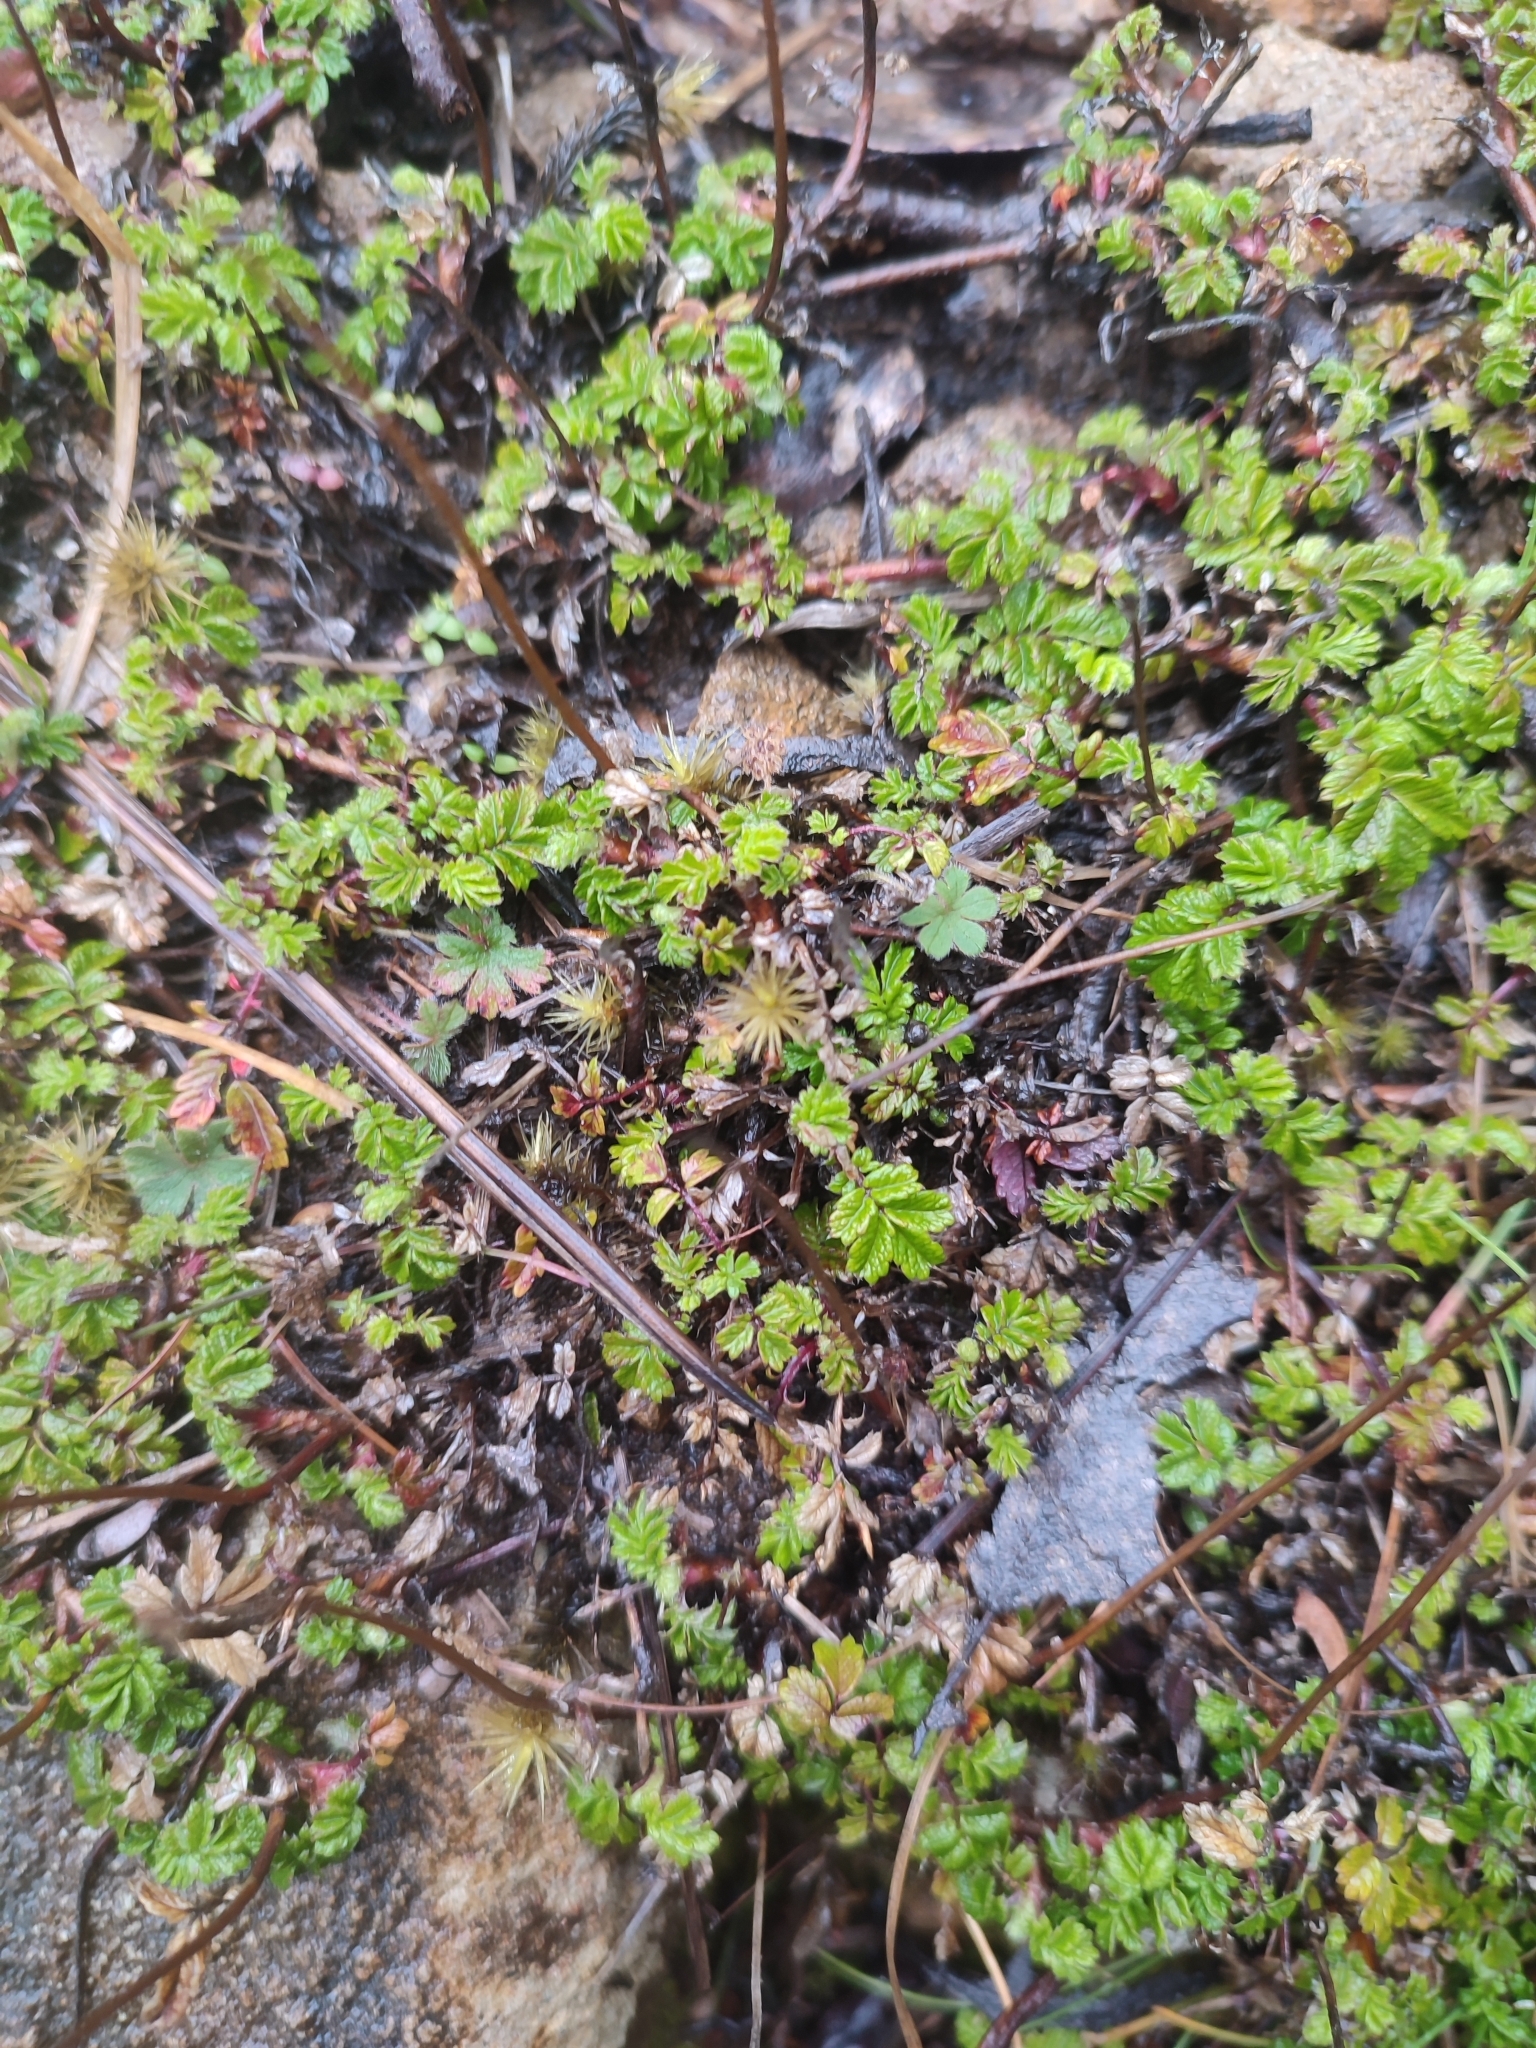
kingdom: Plantae
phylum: Tracheophyta
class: Magnoliopsida
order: Rosales
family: Rosaceae
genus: Acaena
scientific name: Acaena novae-zelandiae
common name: Pirri-pirri-bur
